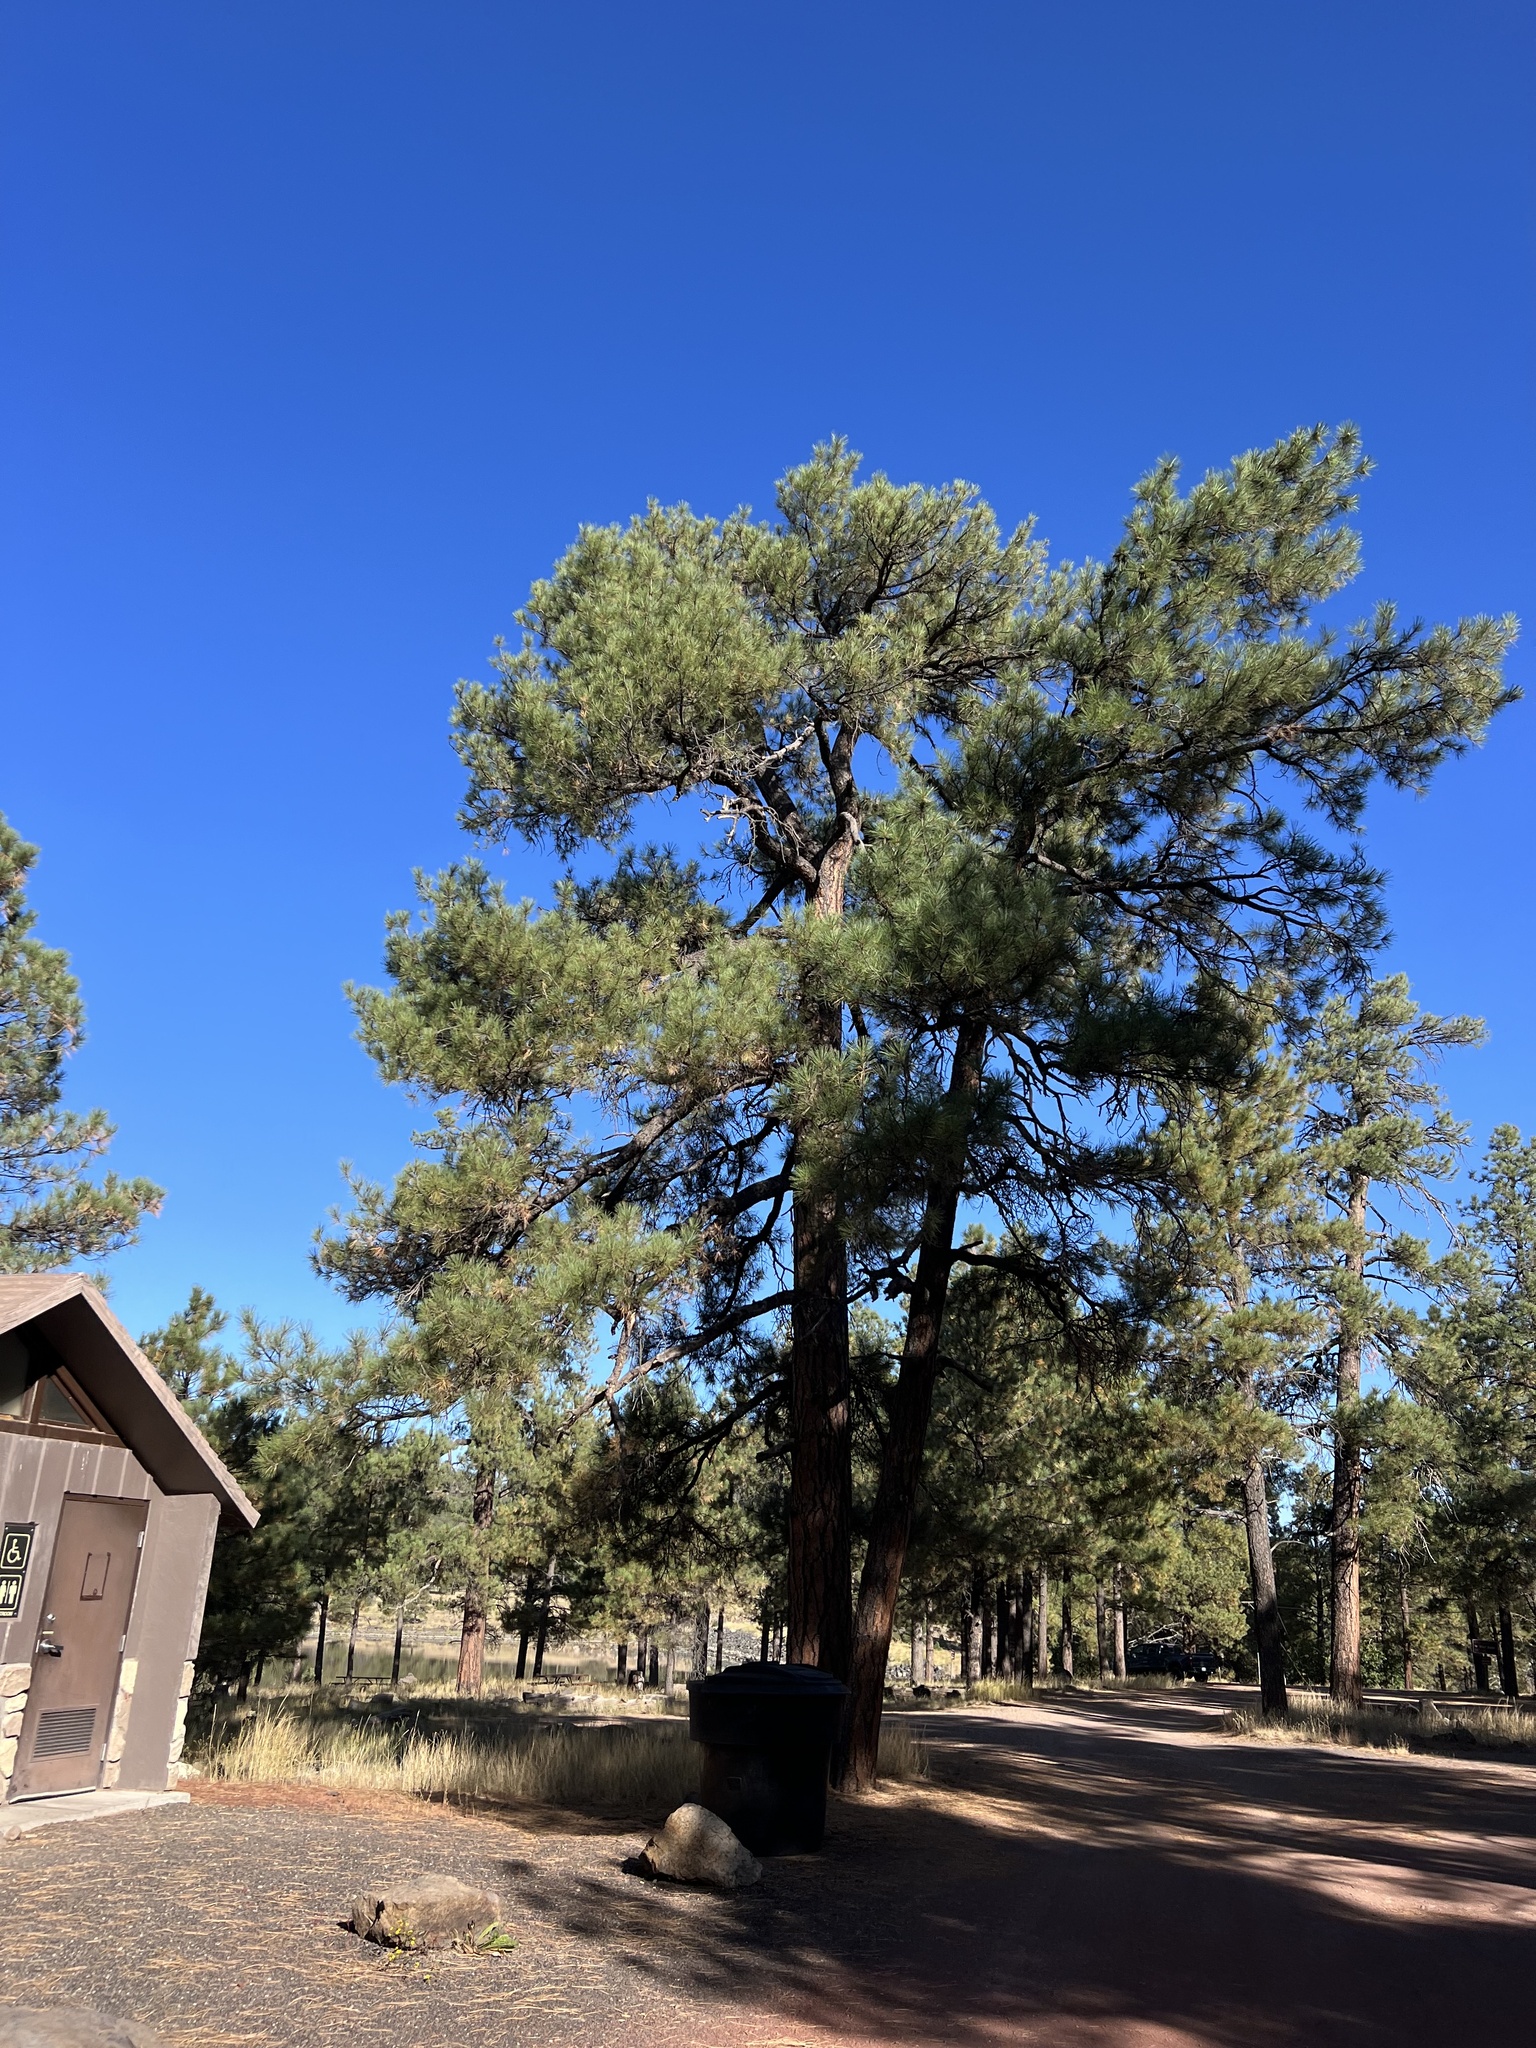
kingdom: Plantae
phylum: Tracheophyta
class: Pinopsida
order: Pinales
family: Pinaceae
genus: Pinus
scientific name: Pinus ponderosa
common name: Western yellow-pine
